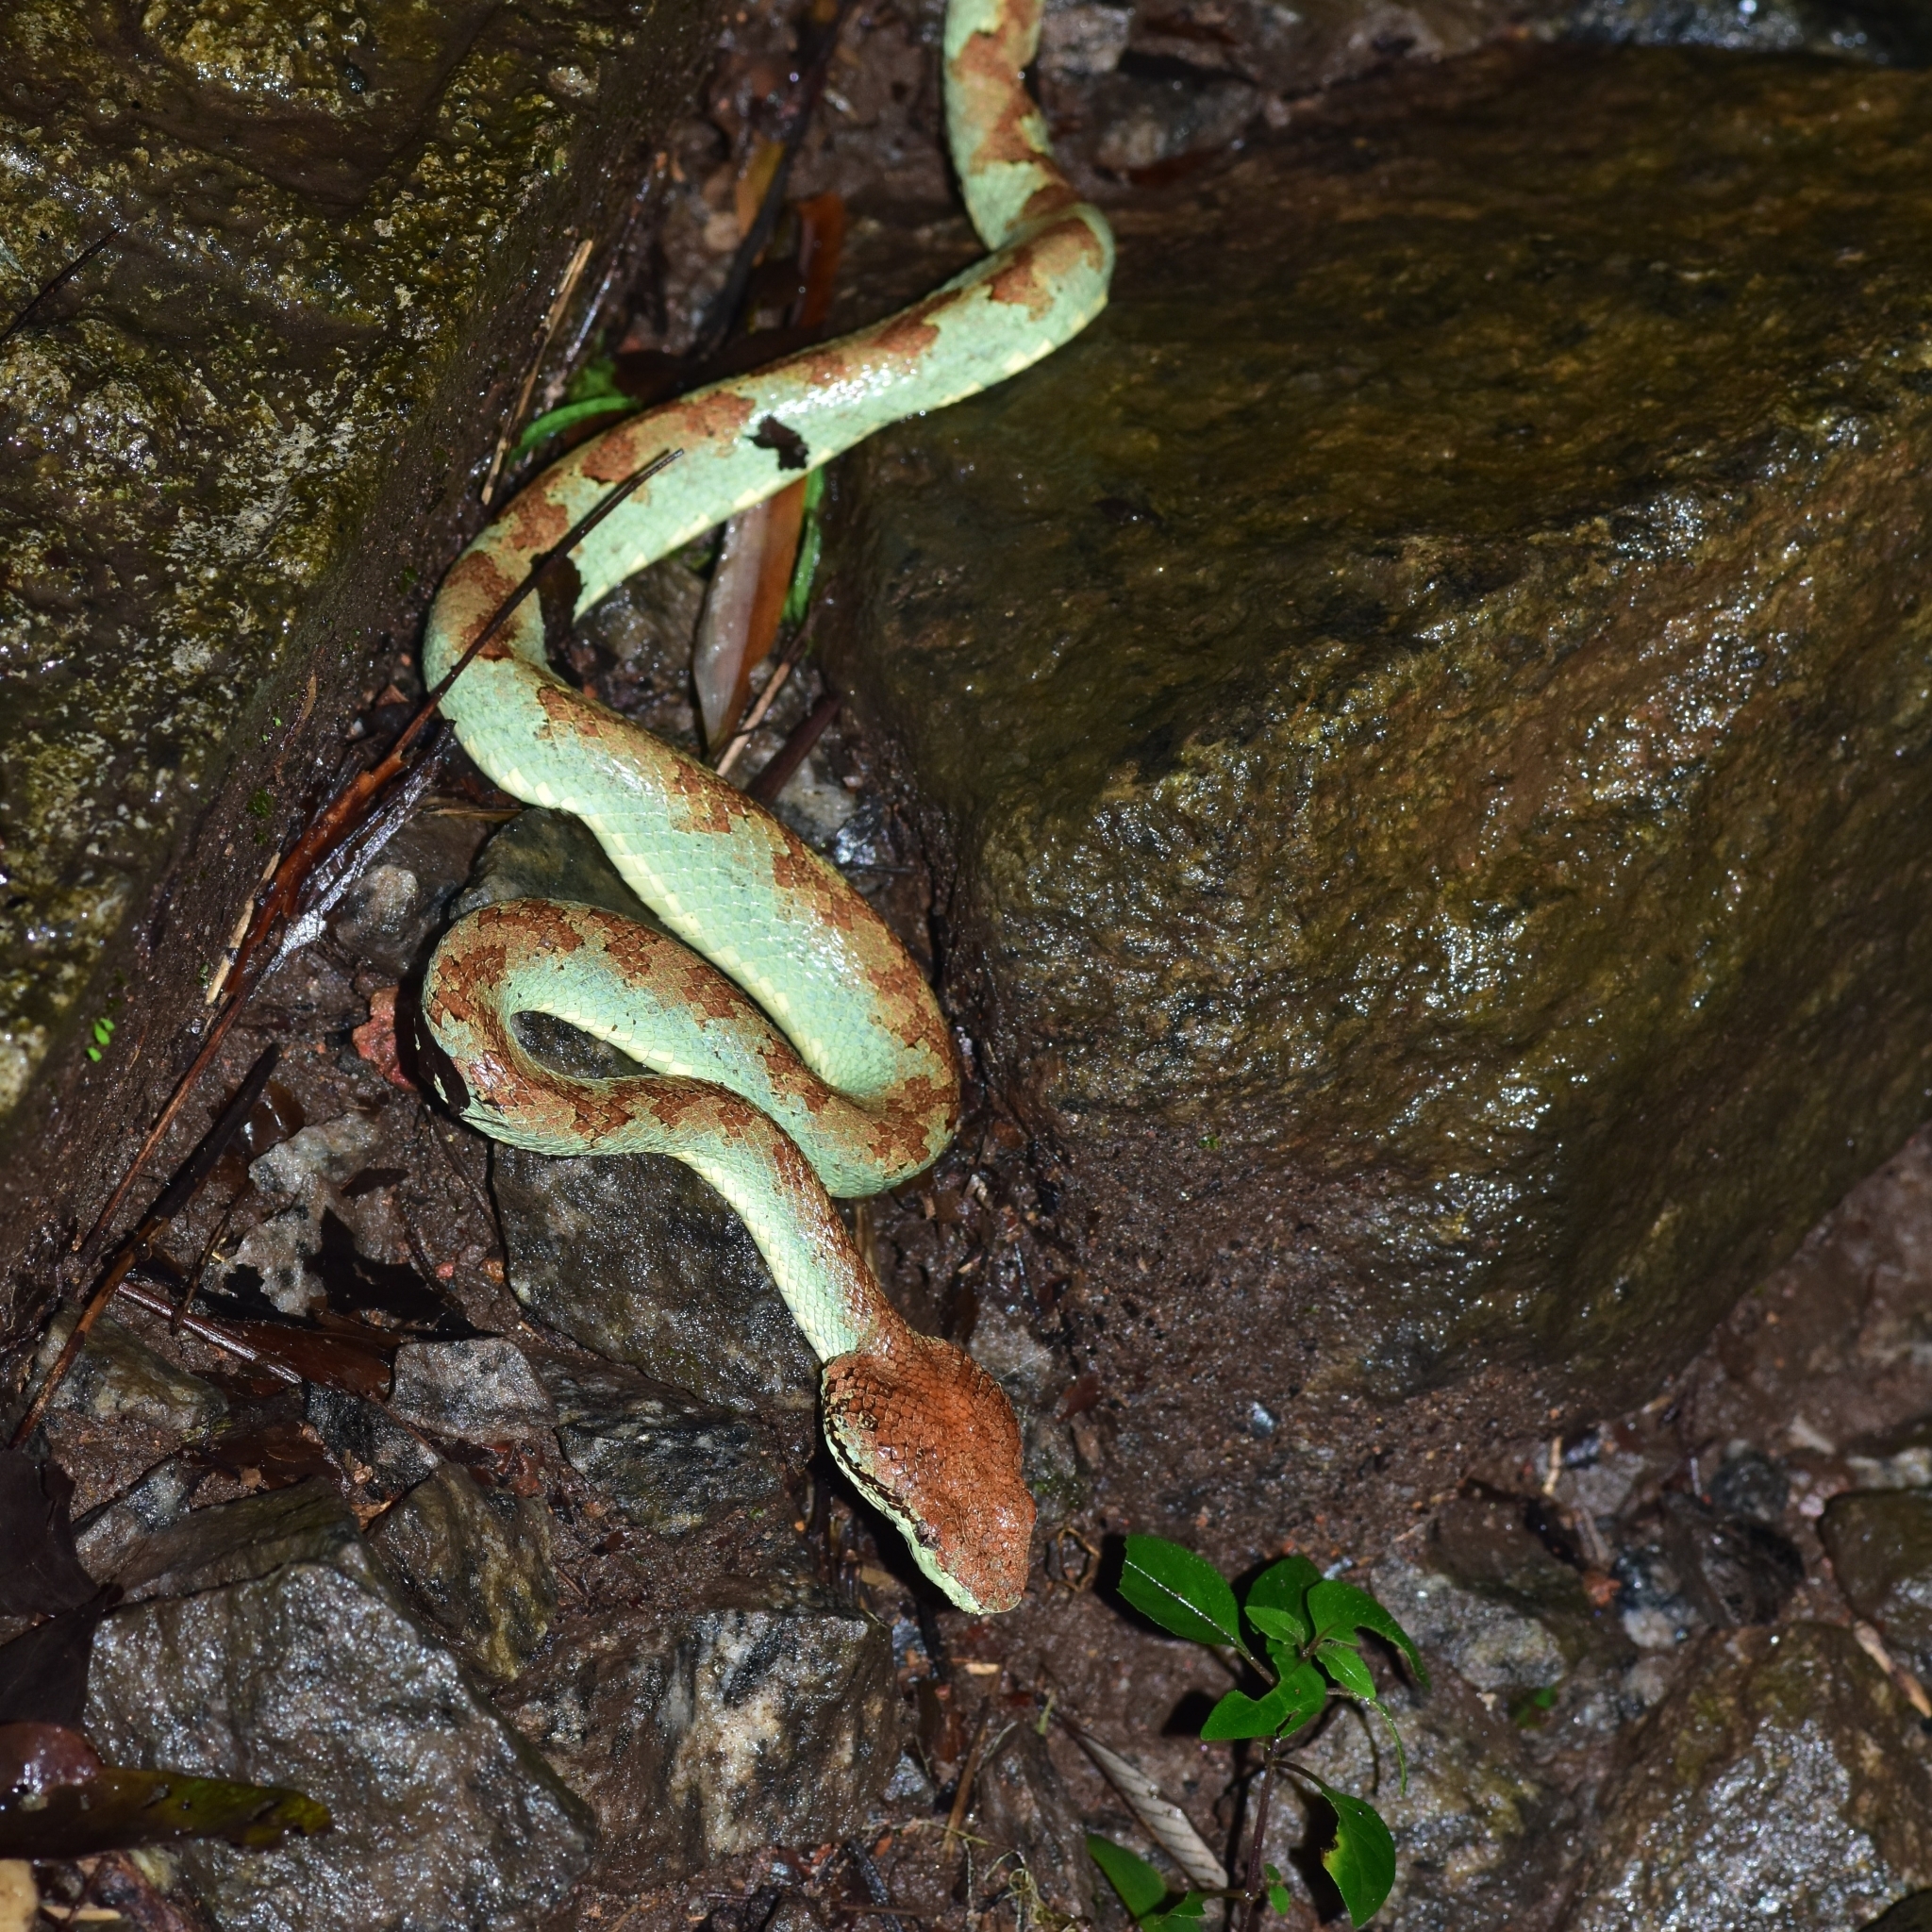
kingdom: Animalia
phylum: Chordata
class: Squamata
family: Viperidae
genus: Craspedocephalus
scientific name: Craspedocephalus malabaricus
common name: Malabarian pit viper
